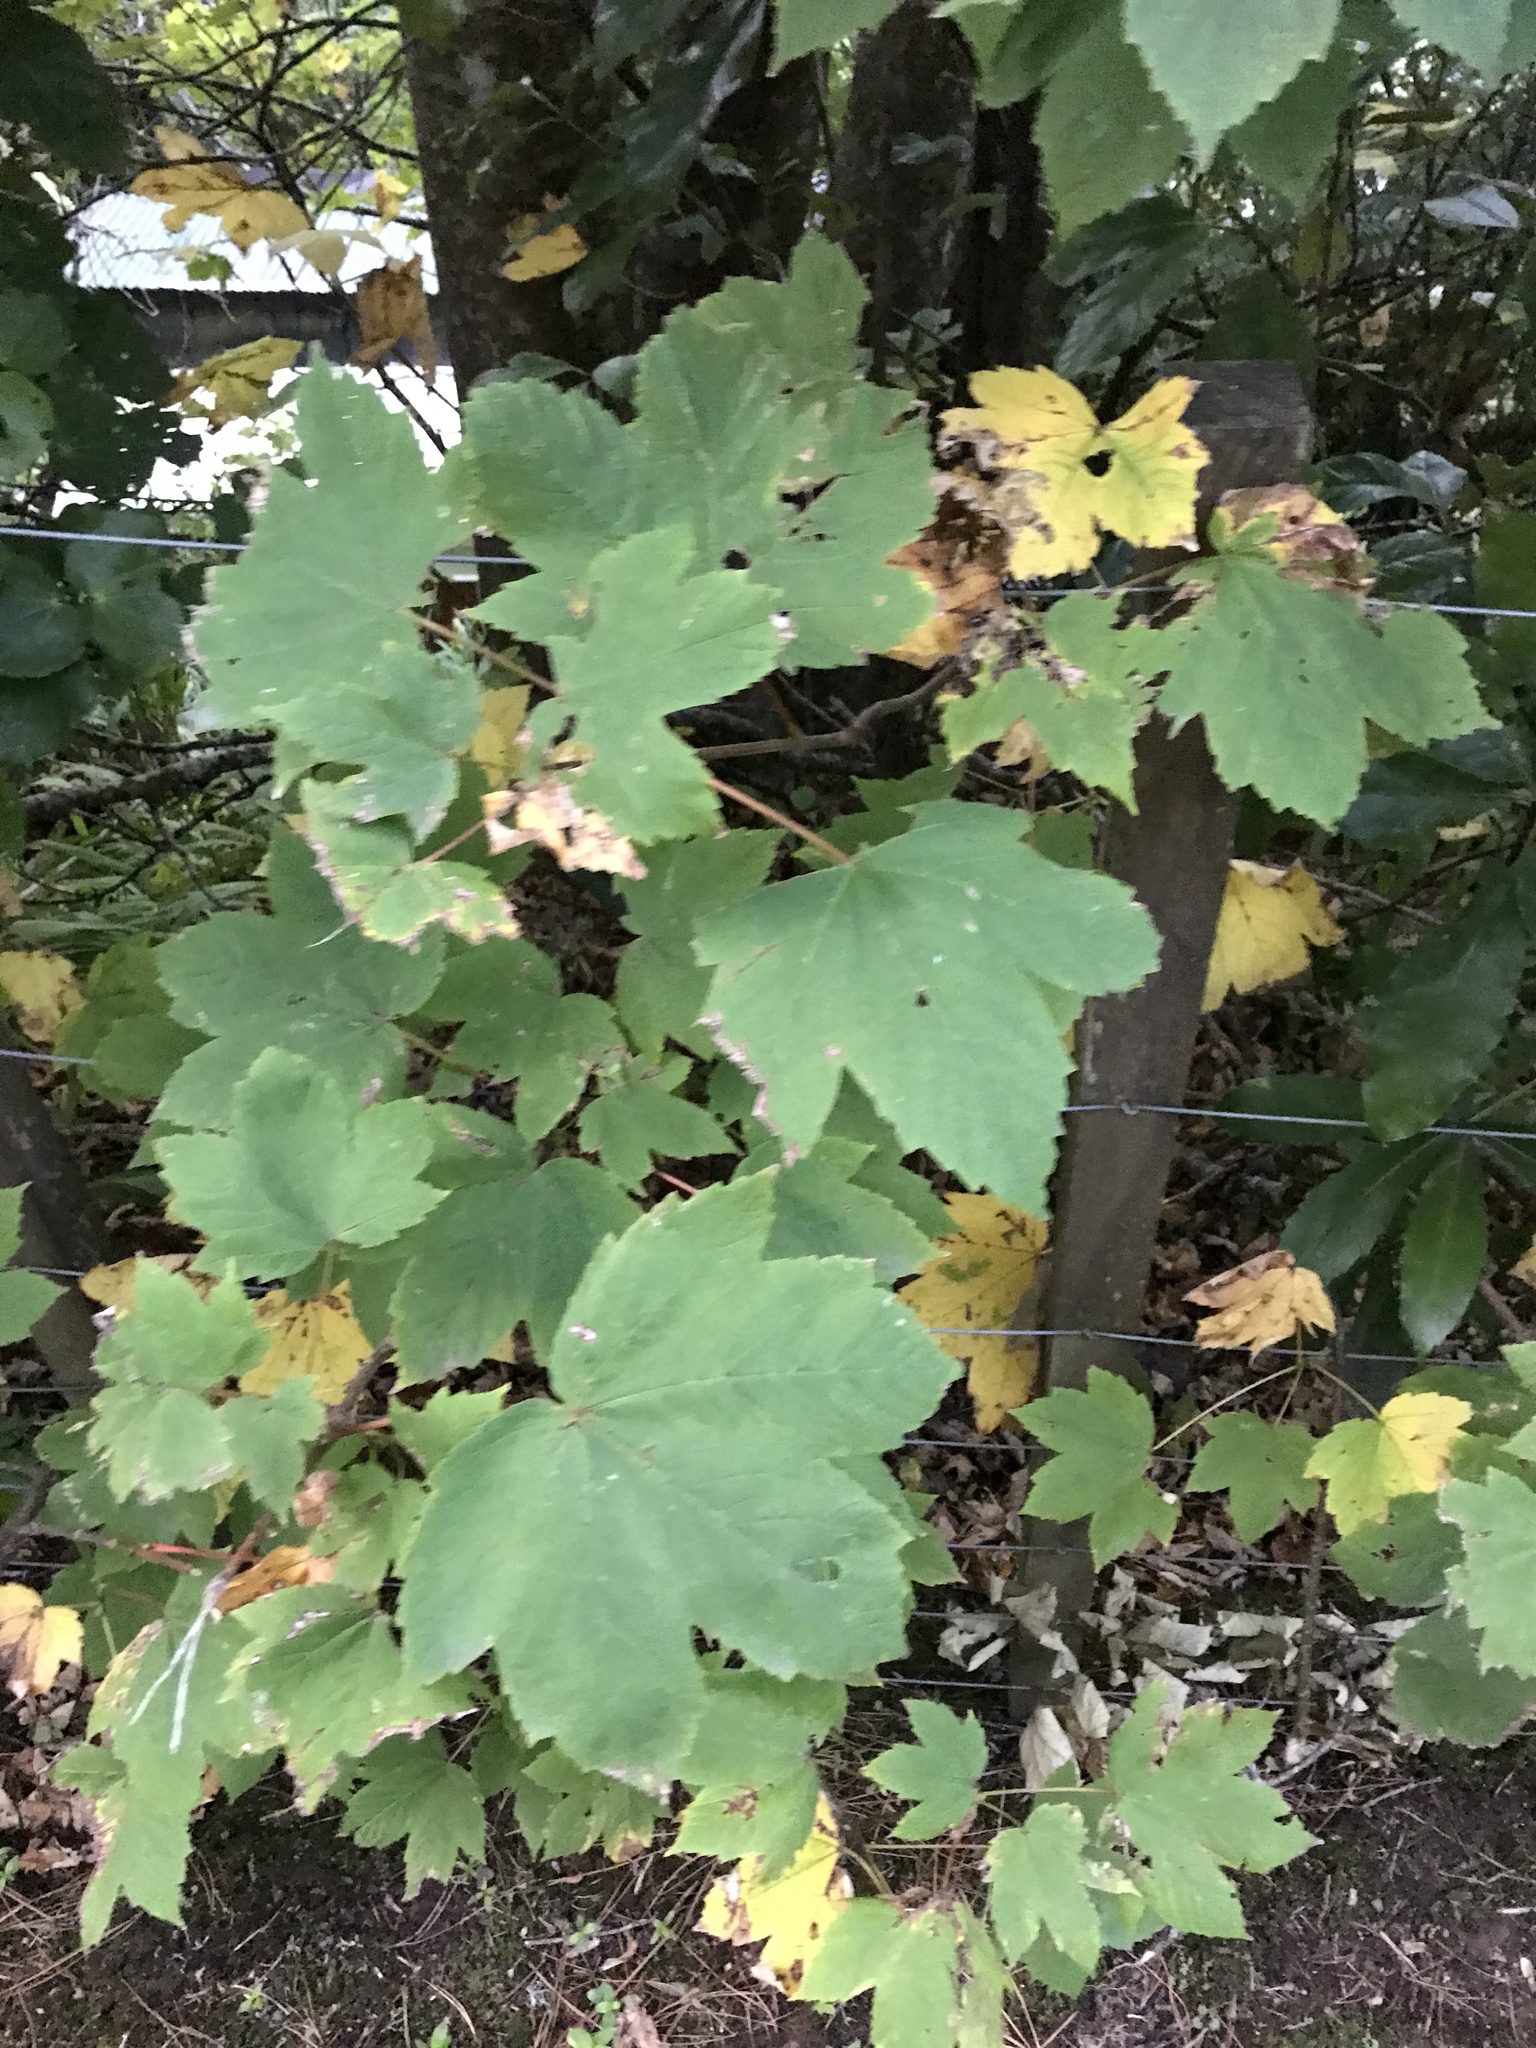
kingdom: Plantae
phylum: Tracheophyta
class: Magnoliopsida
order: Sapindales
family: Sapindaceae
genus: Acer
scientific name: Acer pseudoplatanus
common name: Sycamore
